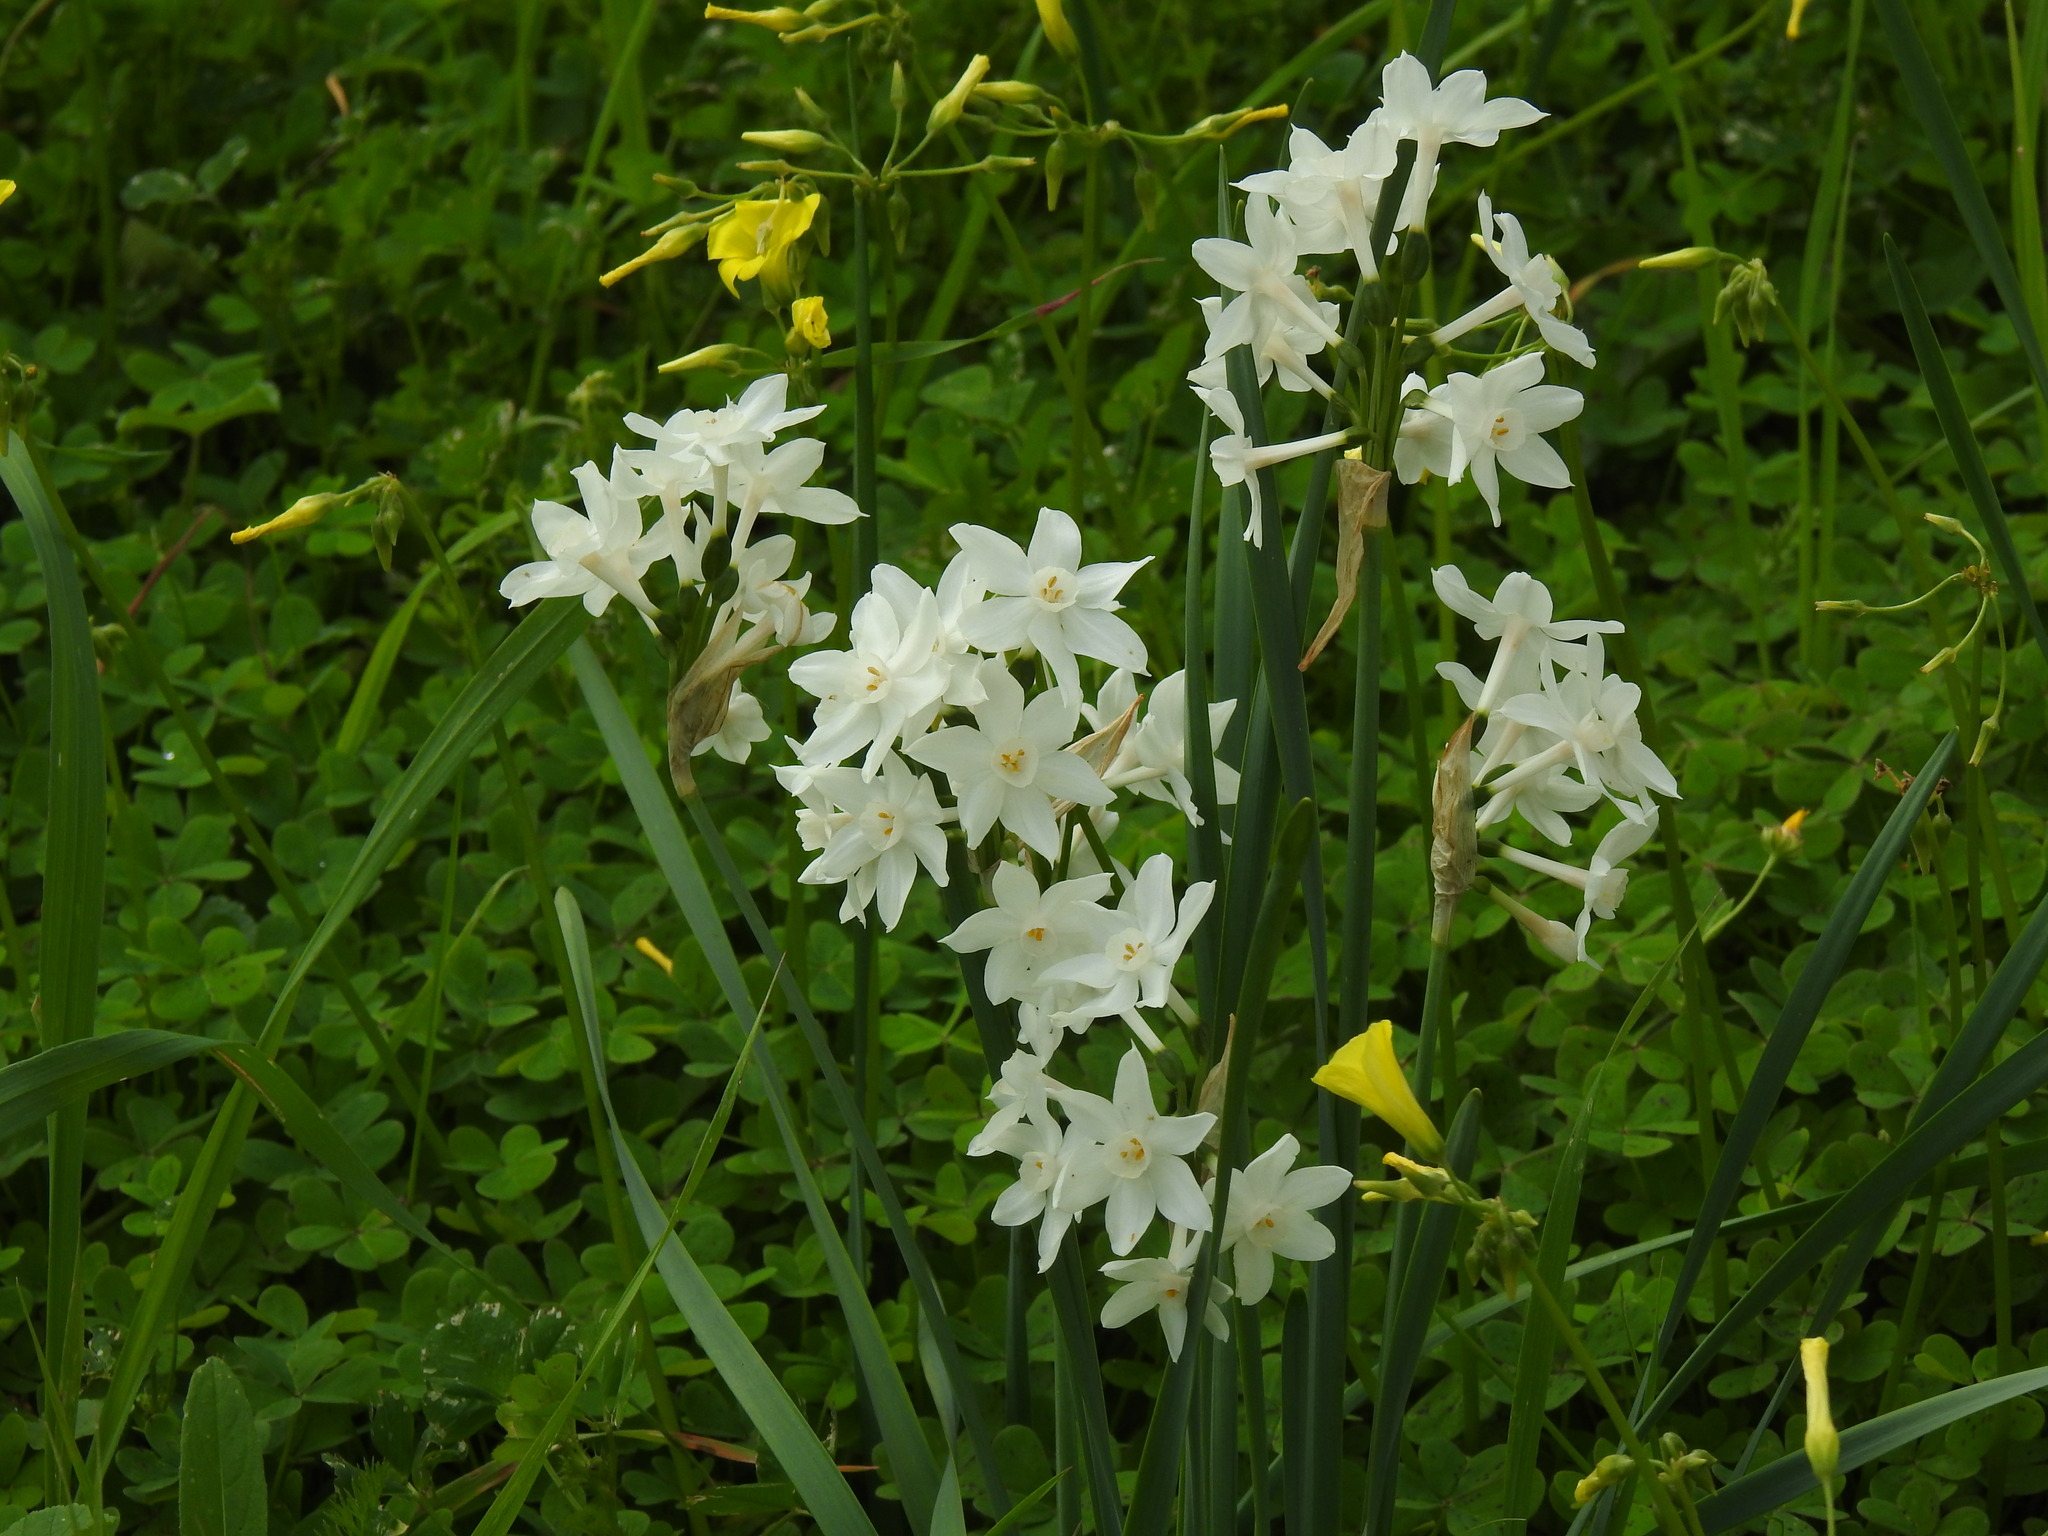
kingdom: Plantae
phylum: Tracheophyta
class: Liliopsida
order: Asparagales
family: Amaryllidaceae
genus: Narcissus
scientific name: Narcissus papyraceus
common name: Paper-white daffodil
